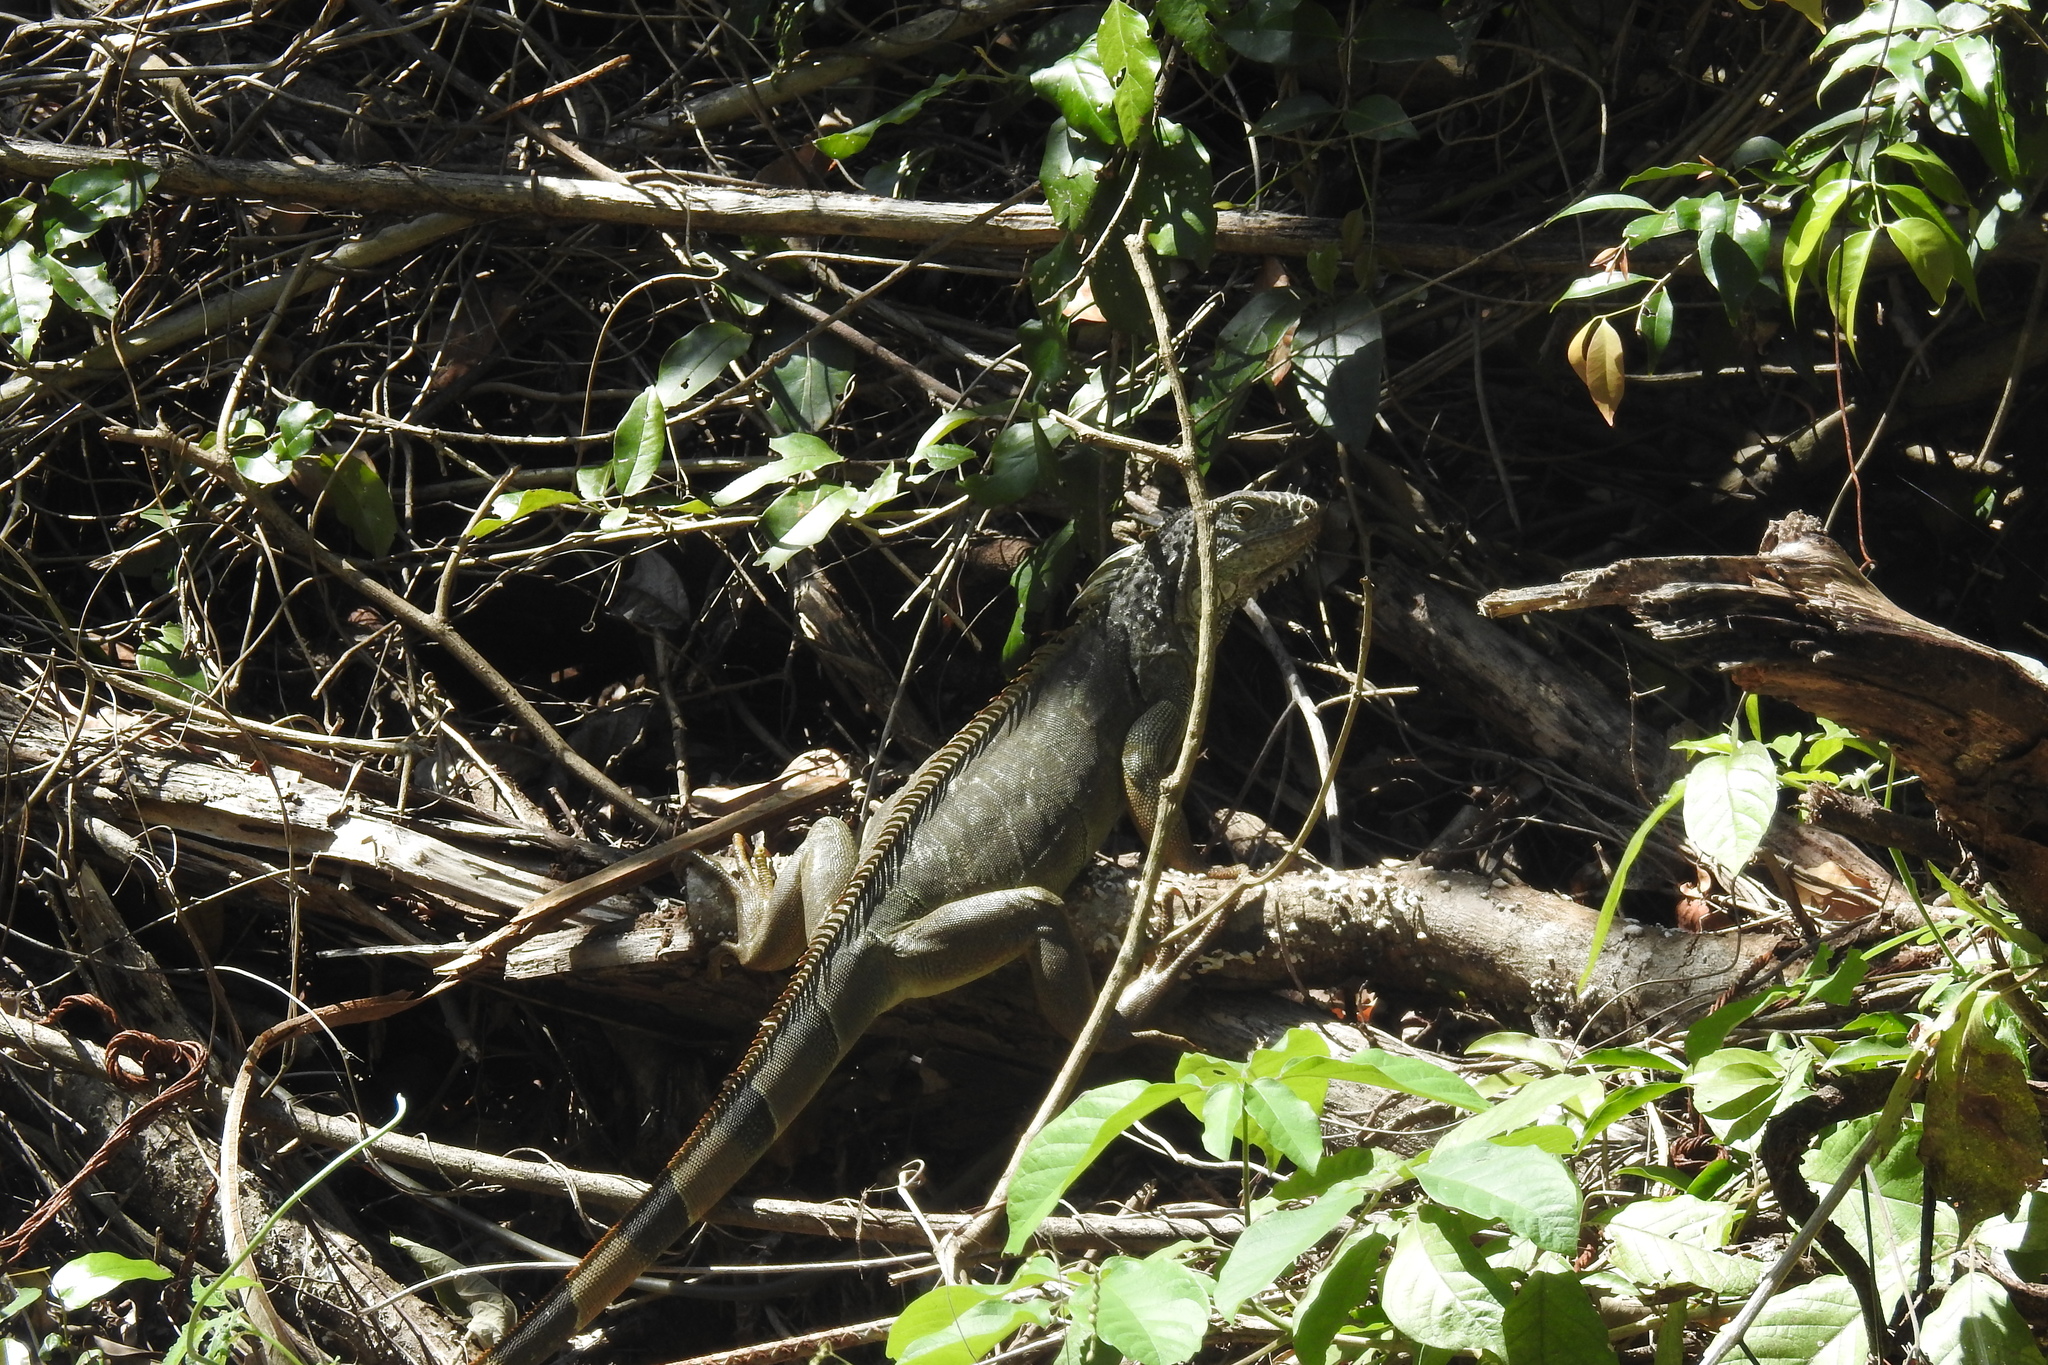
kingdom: Animalia
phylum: Chordata
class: Squamata
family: Iguanidae
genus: Iguana
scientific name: Iguana iguana
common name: Green iguana
